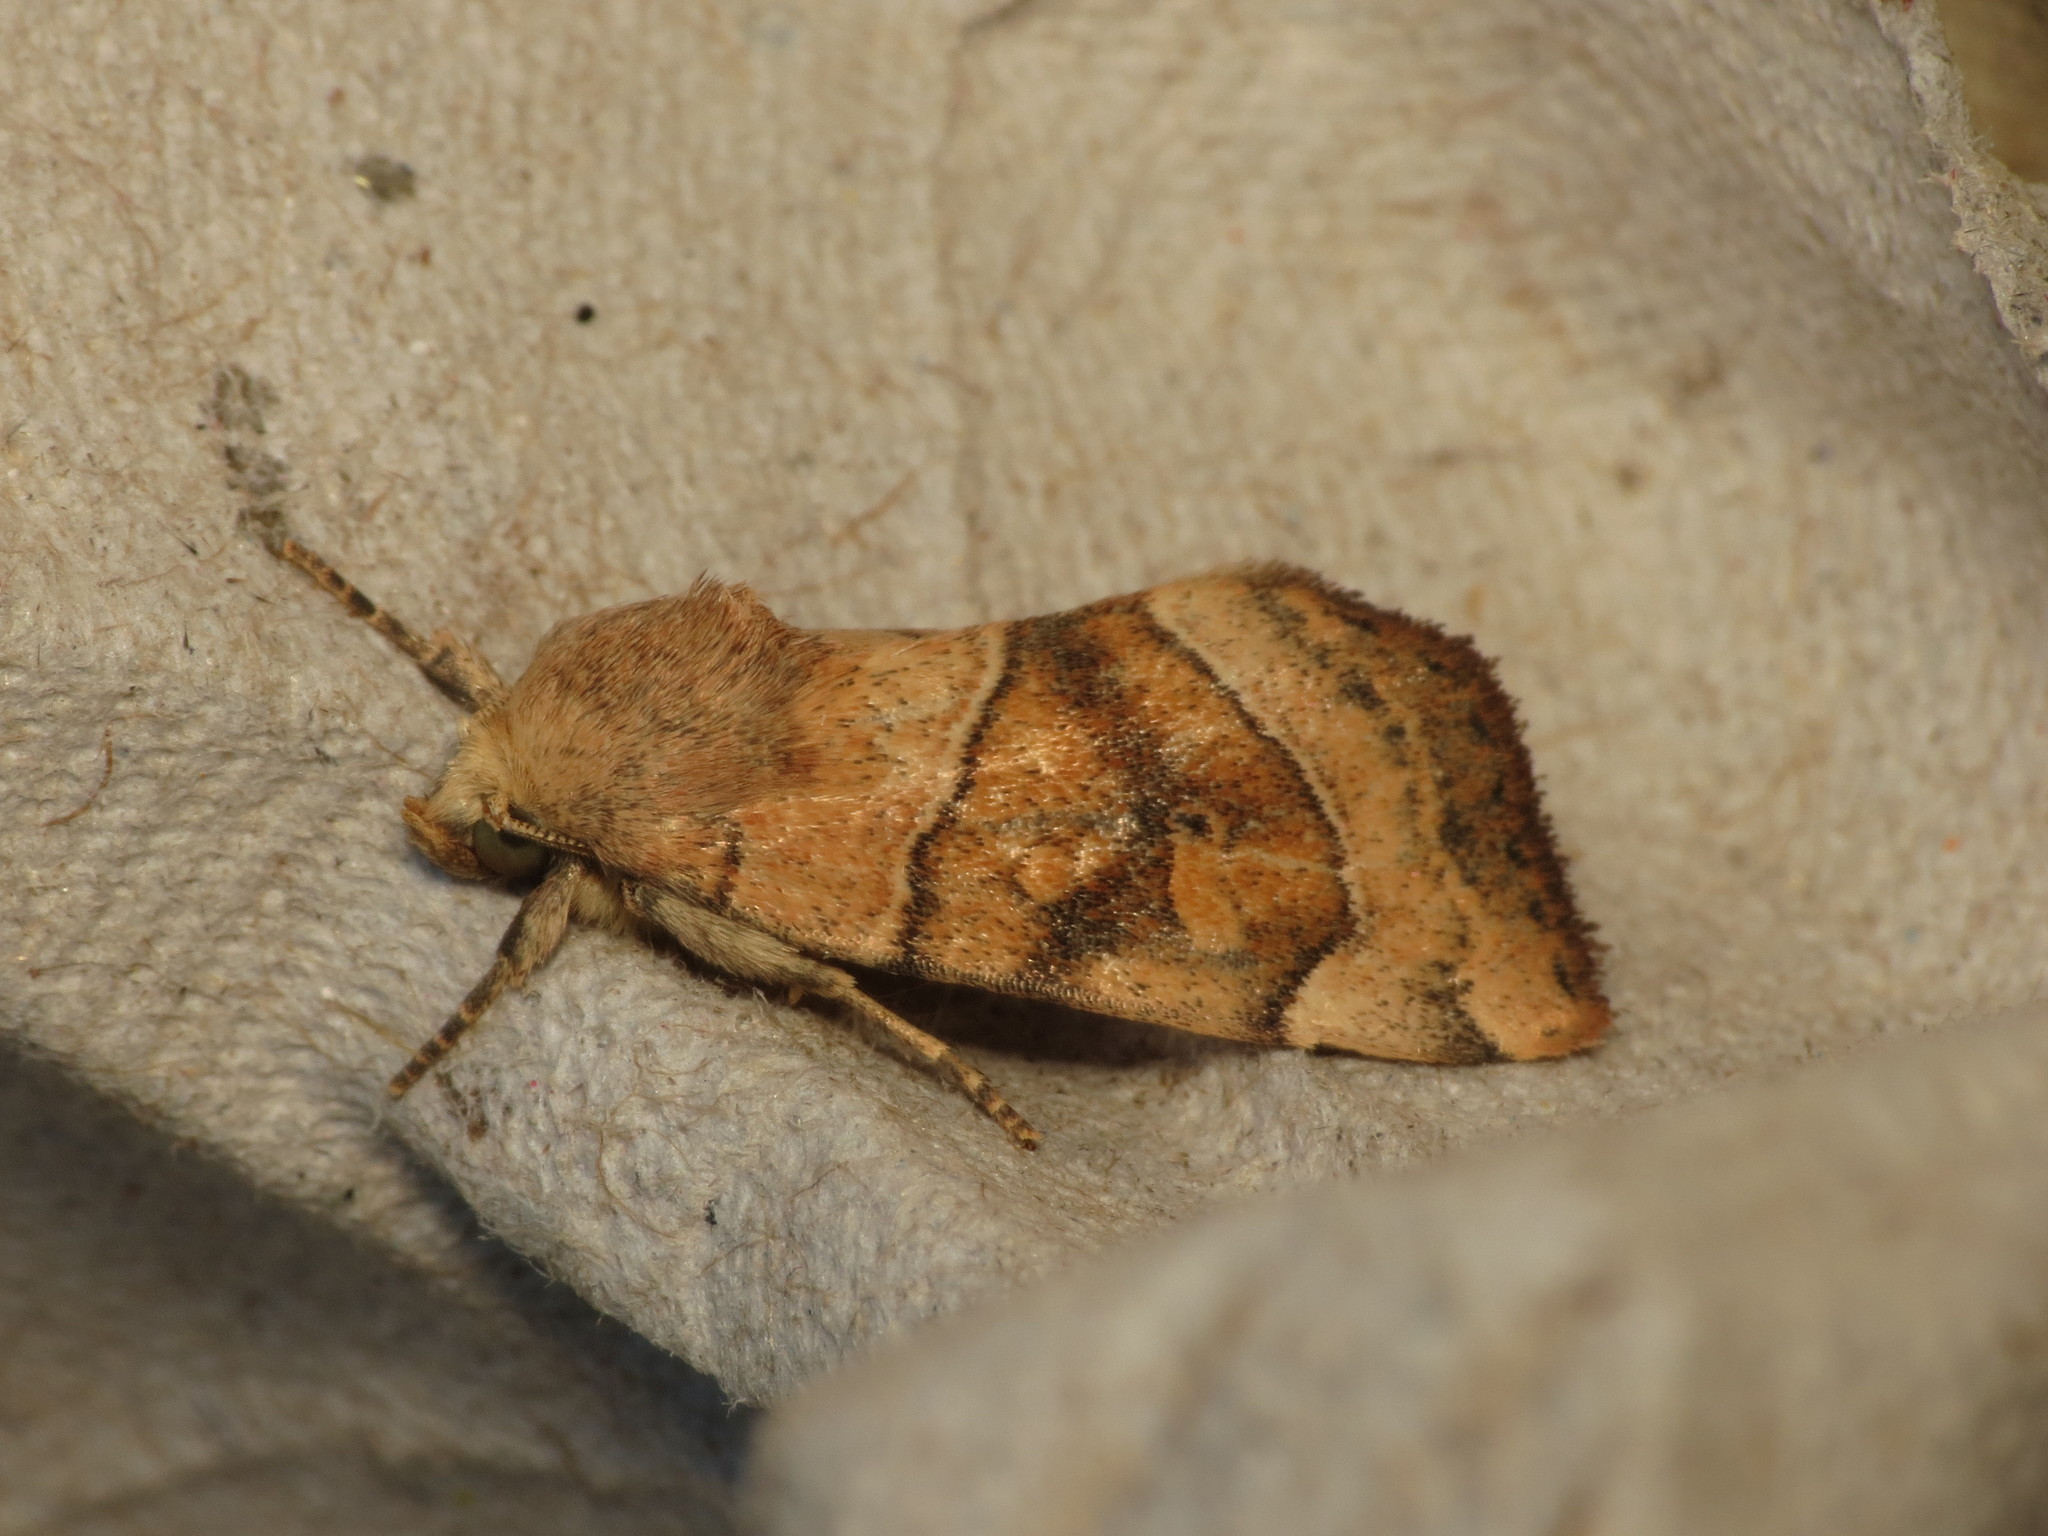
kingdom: Animalia
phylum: Arthropoda
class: Insecta
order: Lepidoptera
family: Noctuidae
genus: Cosmia
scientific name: Cosmia trapezina
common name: Dun-bar
